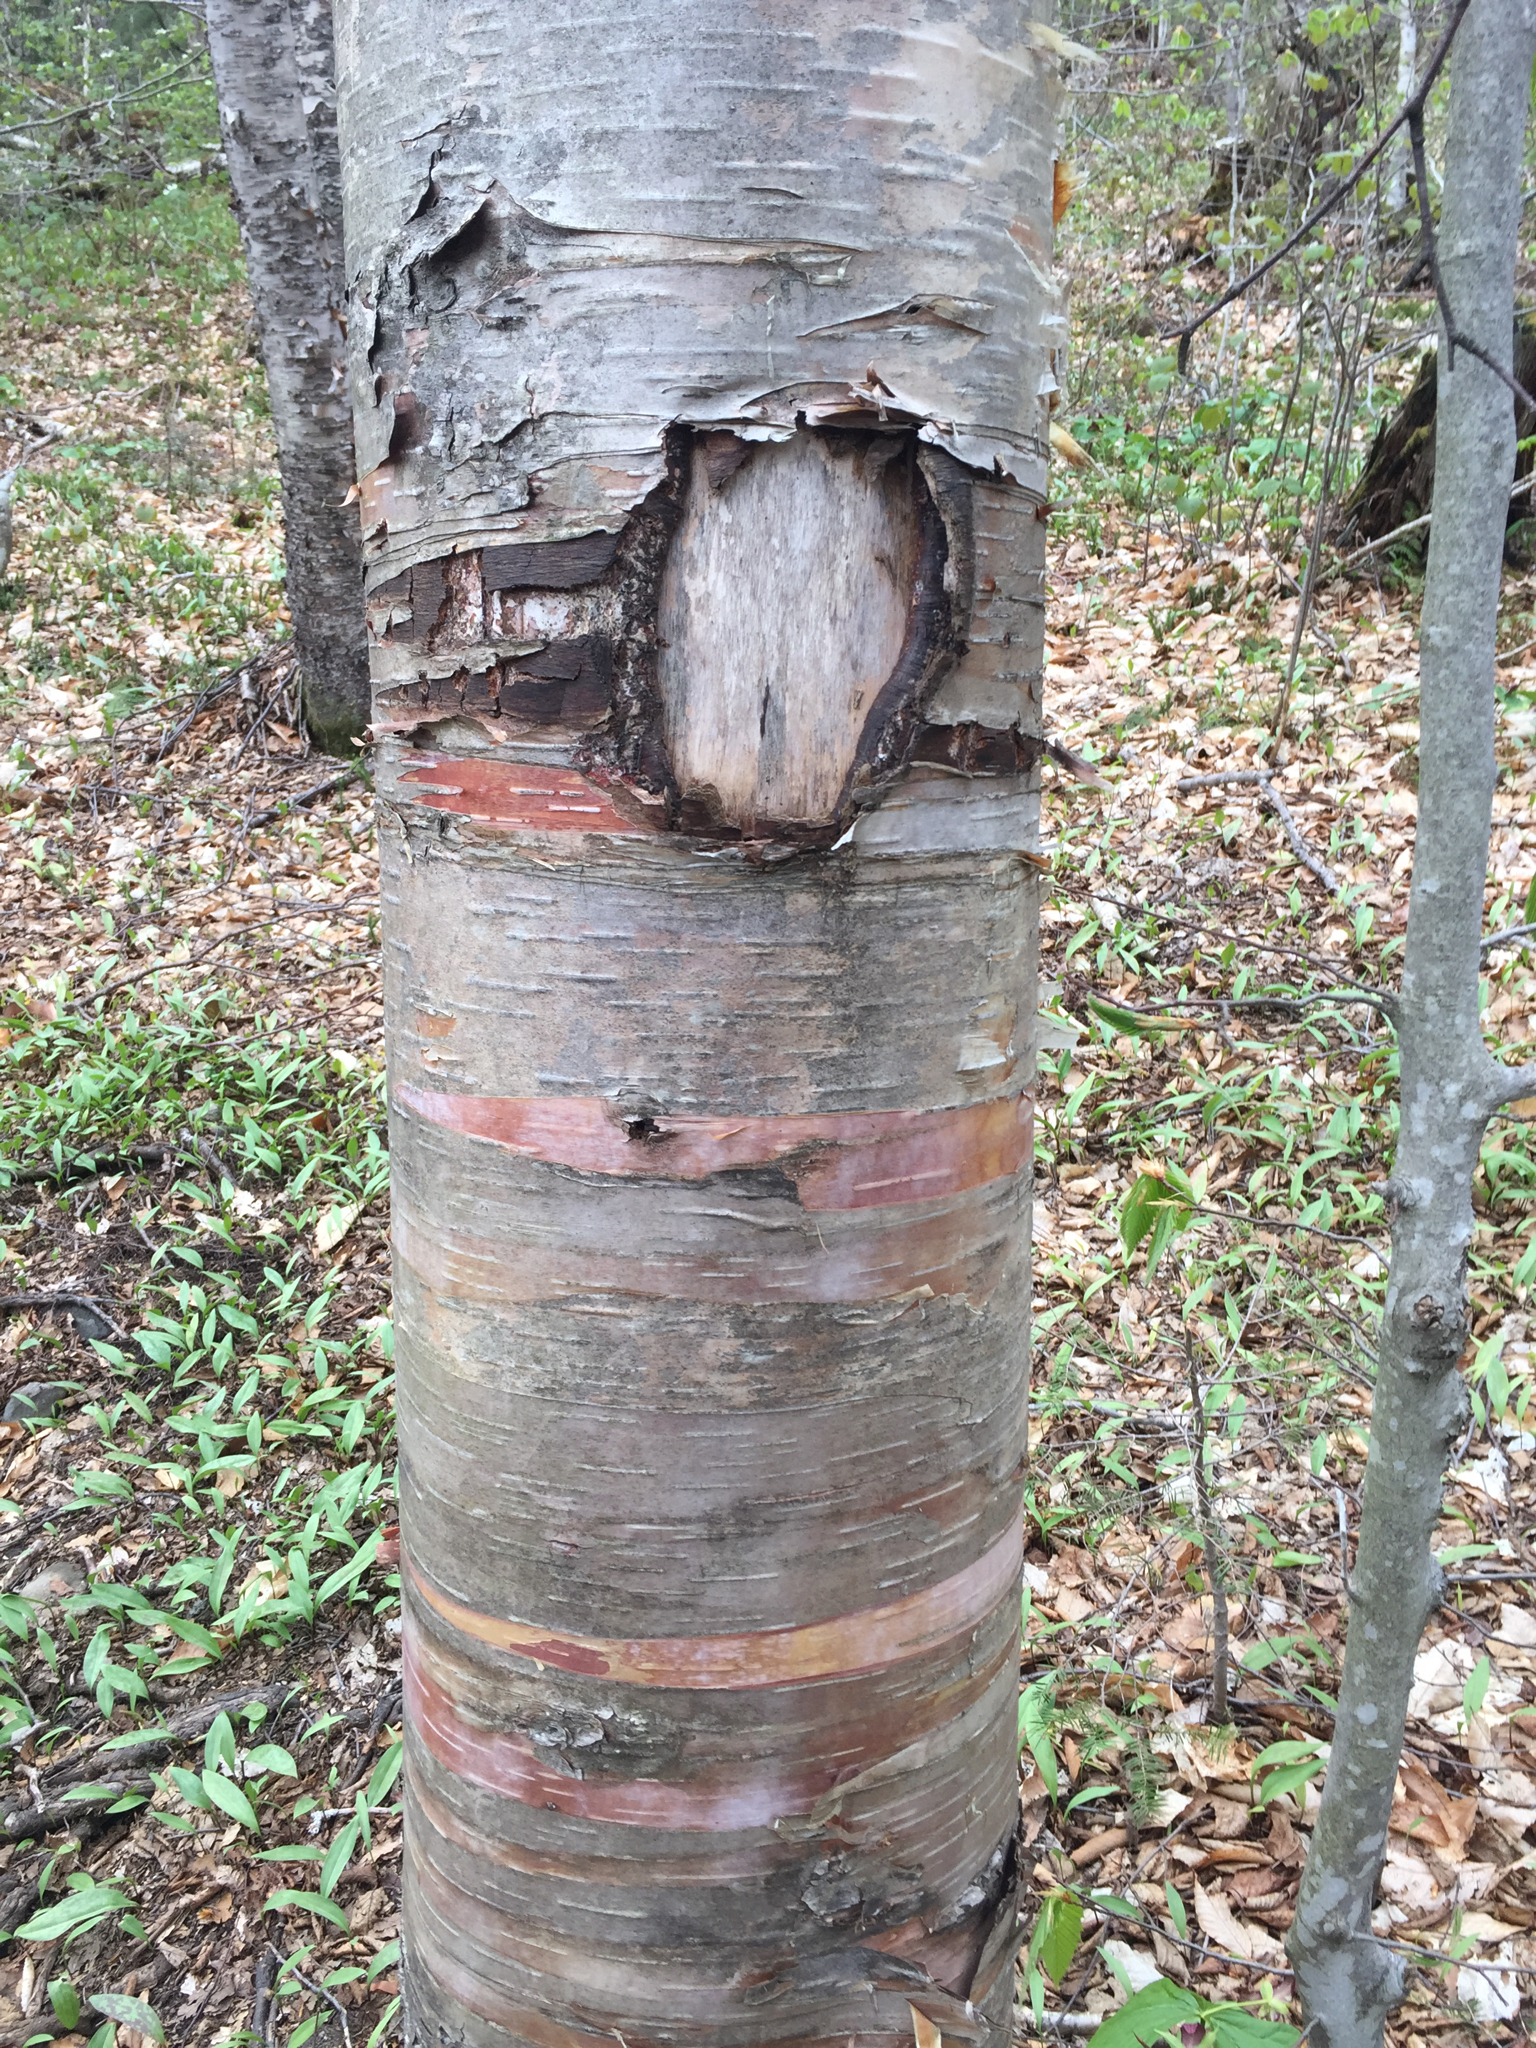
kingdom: Plantae
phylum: Tracheophyta
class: Magnoliopsida
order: Fagales
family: Betulaceae
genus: Betula
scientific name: Betula cordifolia
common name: Mountain white birch
